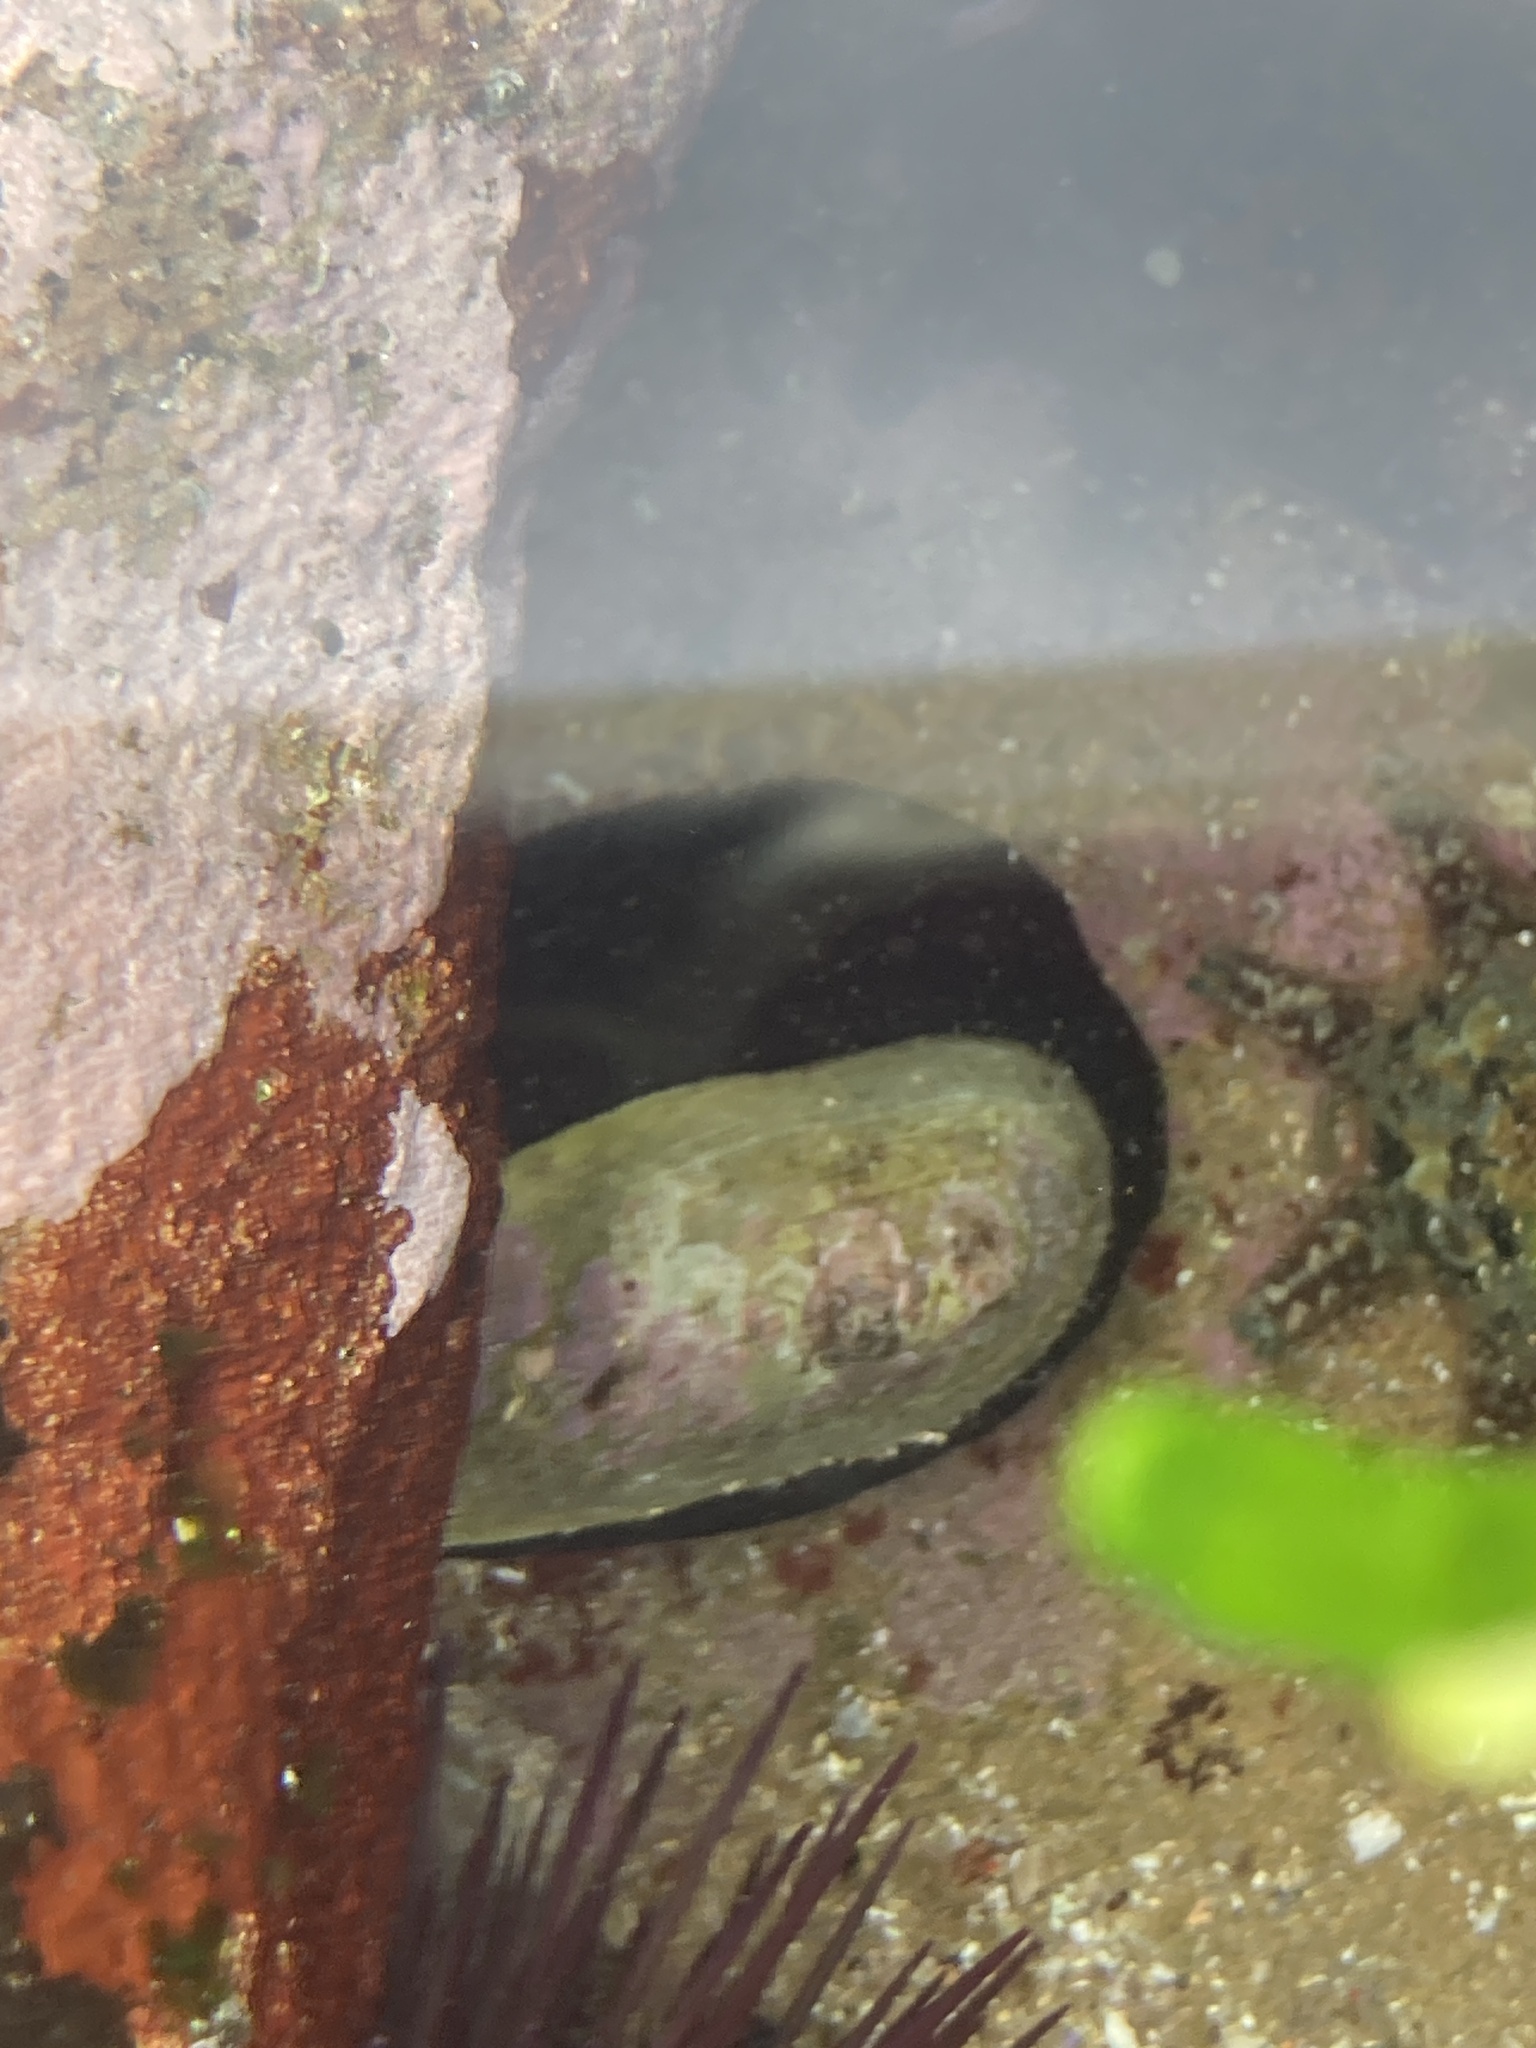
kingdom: Animalia
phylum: Mollusca
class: Gastropoda
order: Lepetellida
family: Fissurellidae
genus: Scutus
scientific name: Scutus antipodes
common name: Duckbill shell
